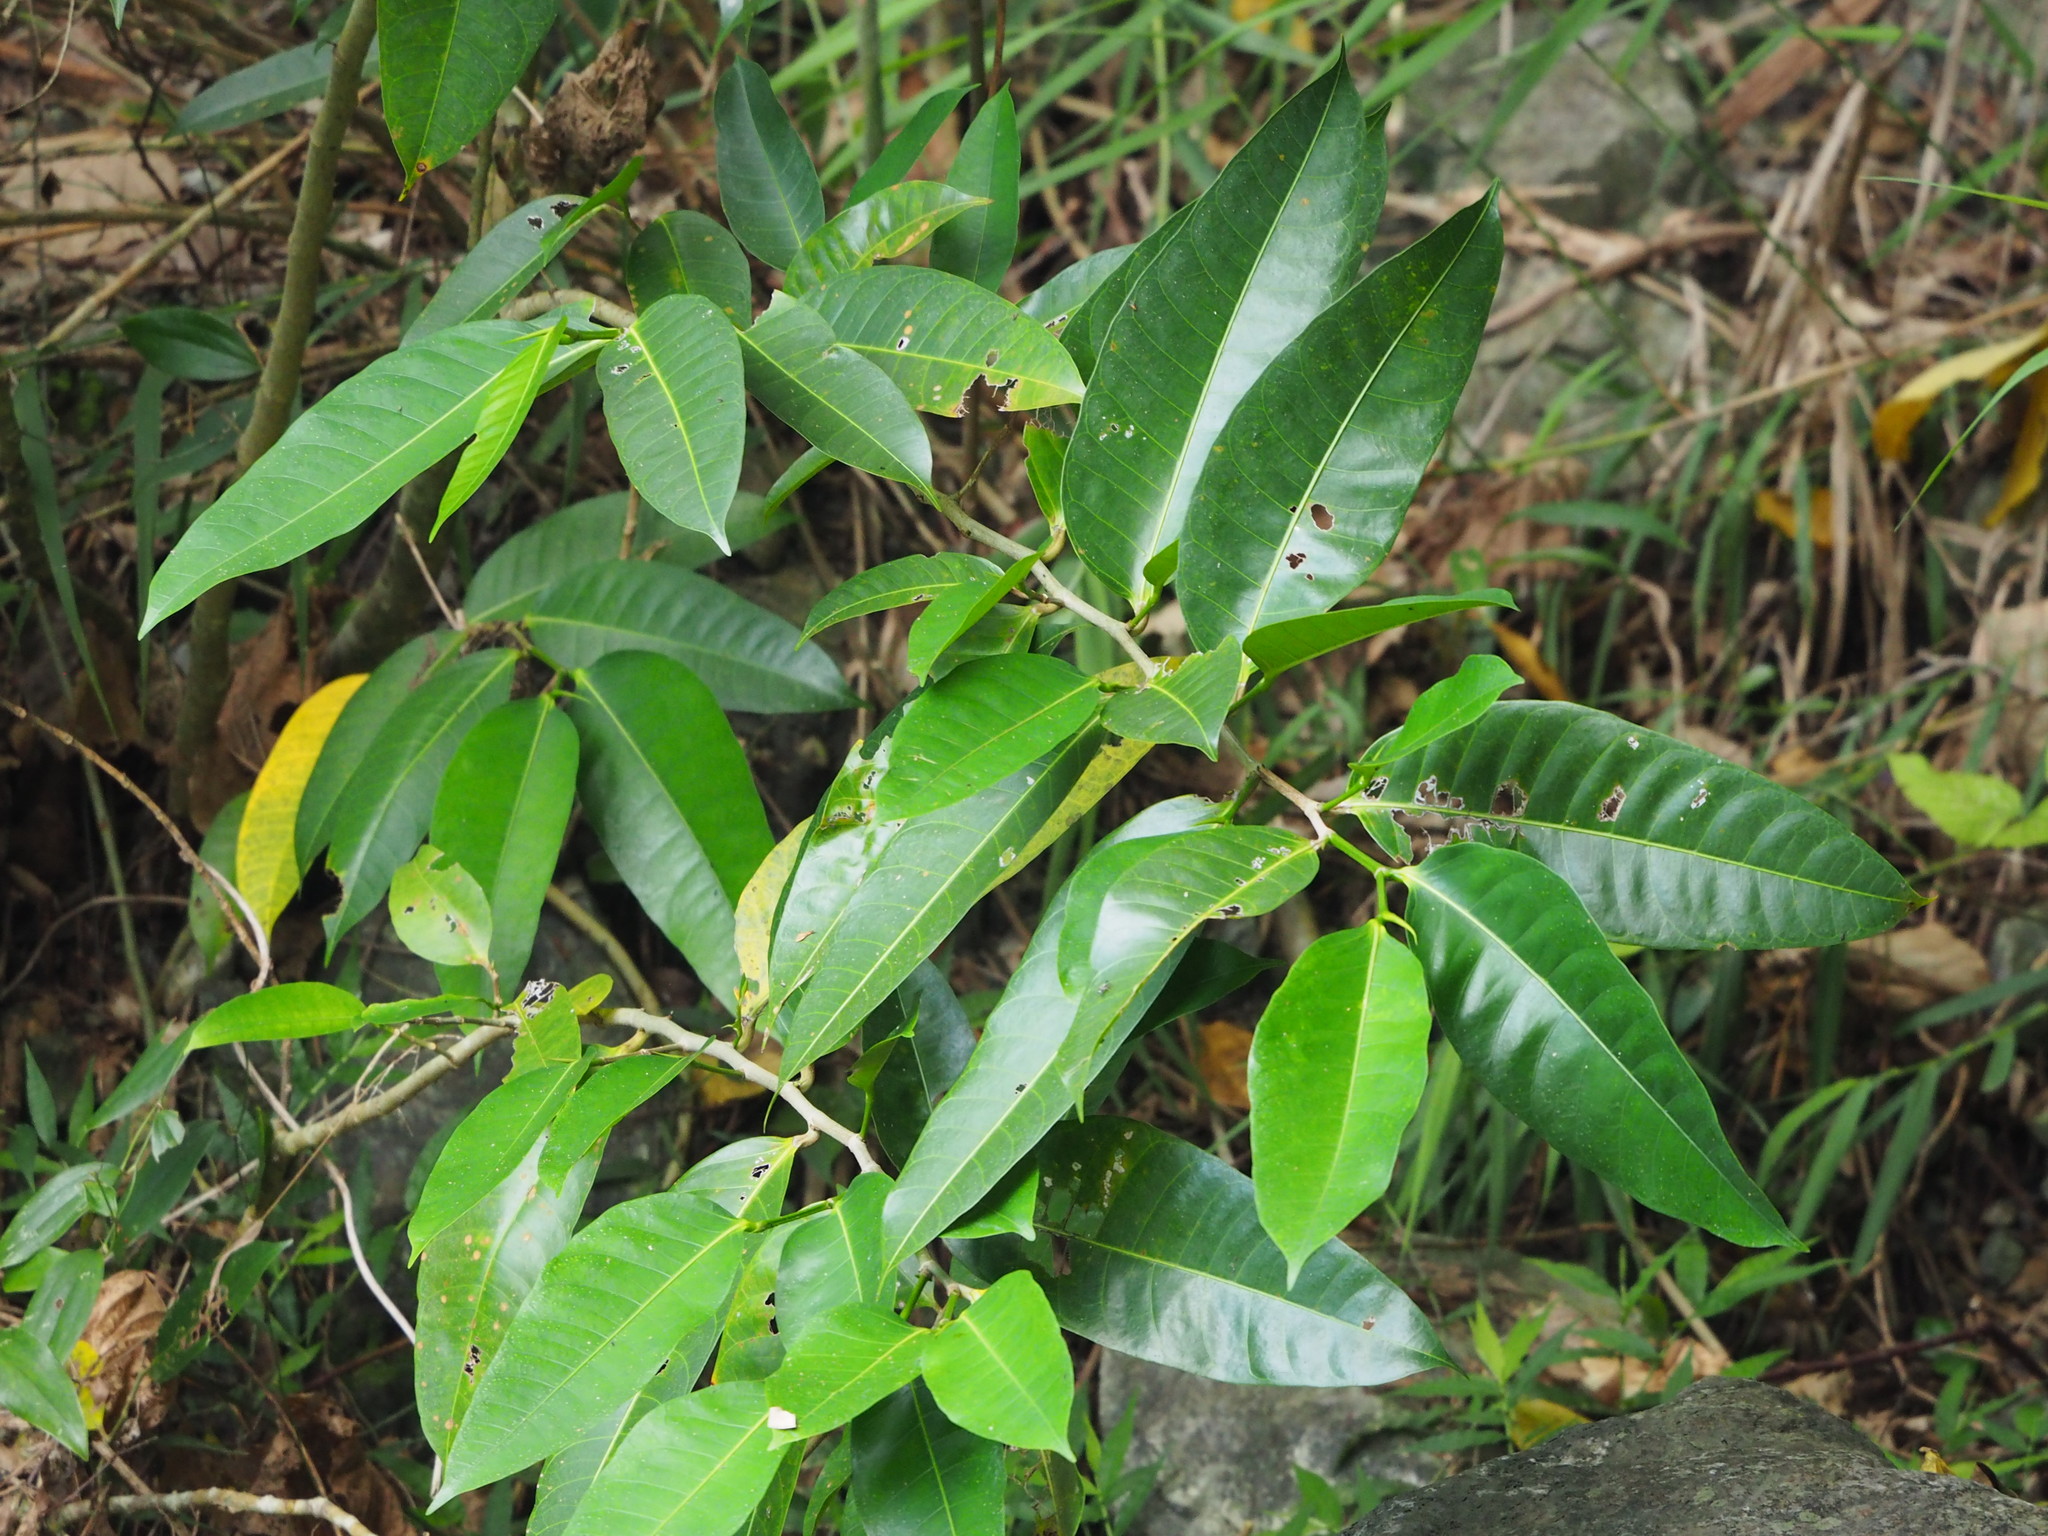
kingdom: Plantae
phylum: Tracheophyta
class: Magnoliopsida
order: Rosales
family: Moraceae
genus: Ficus
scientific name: Ficus virgata
